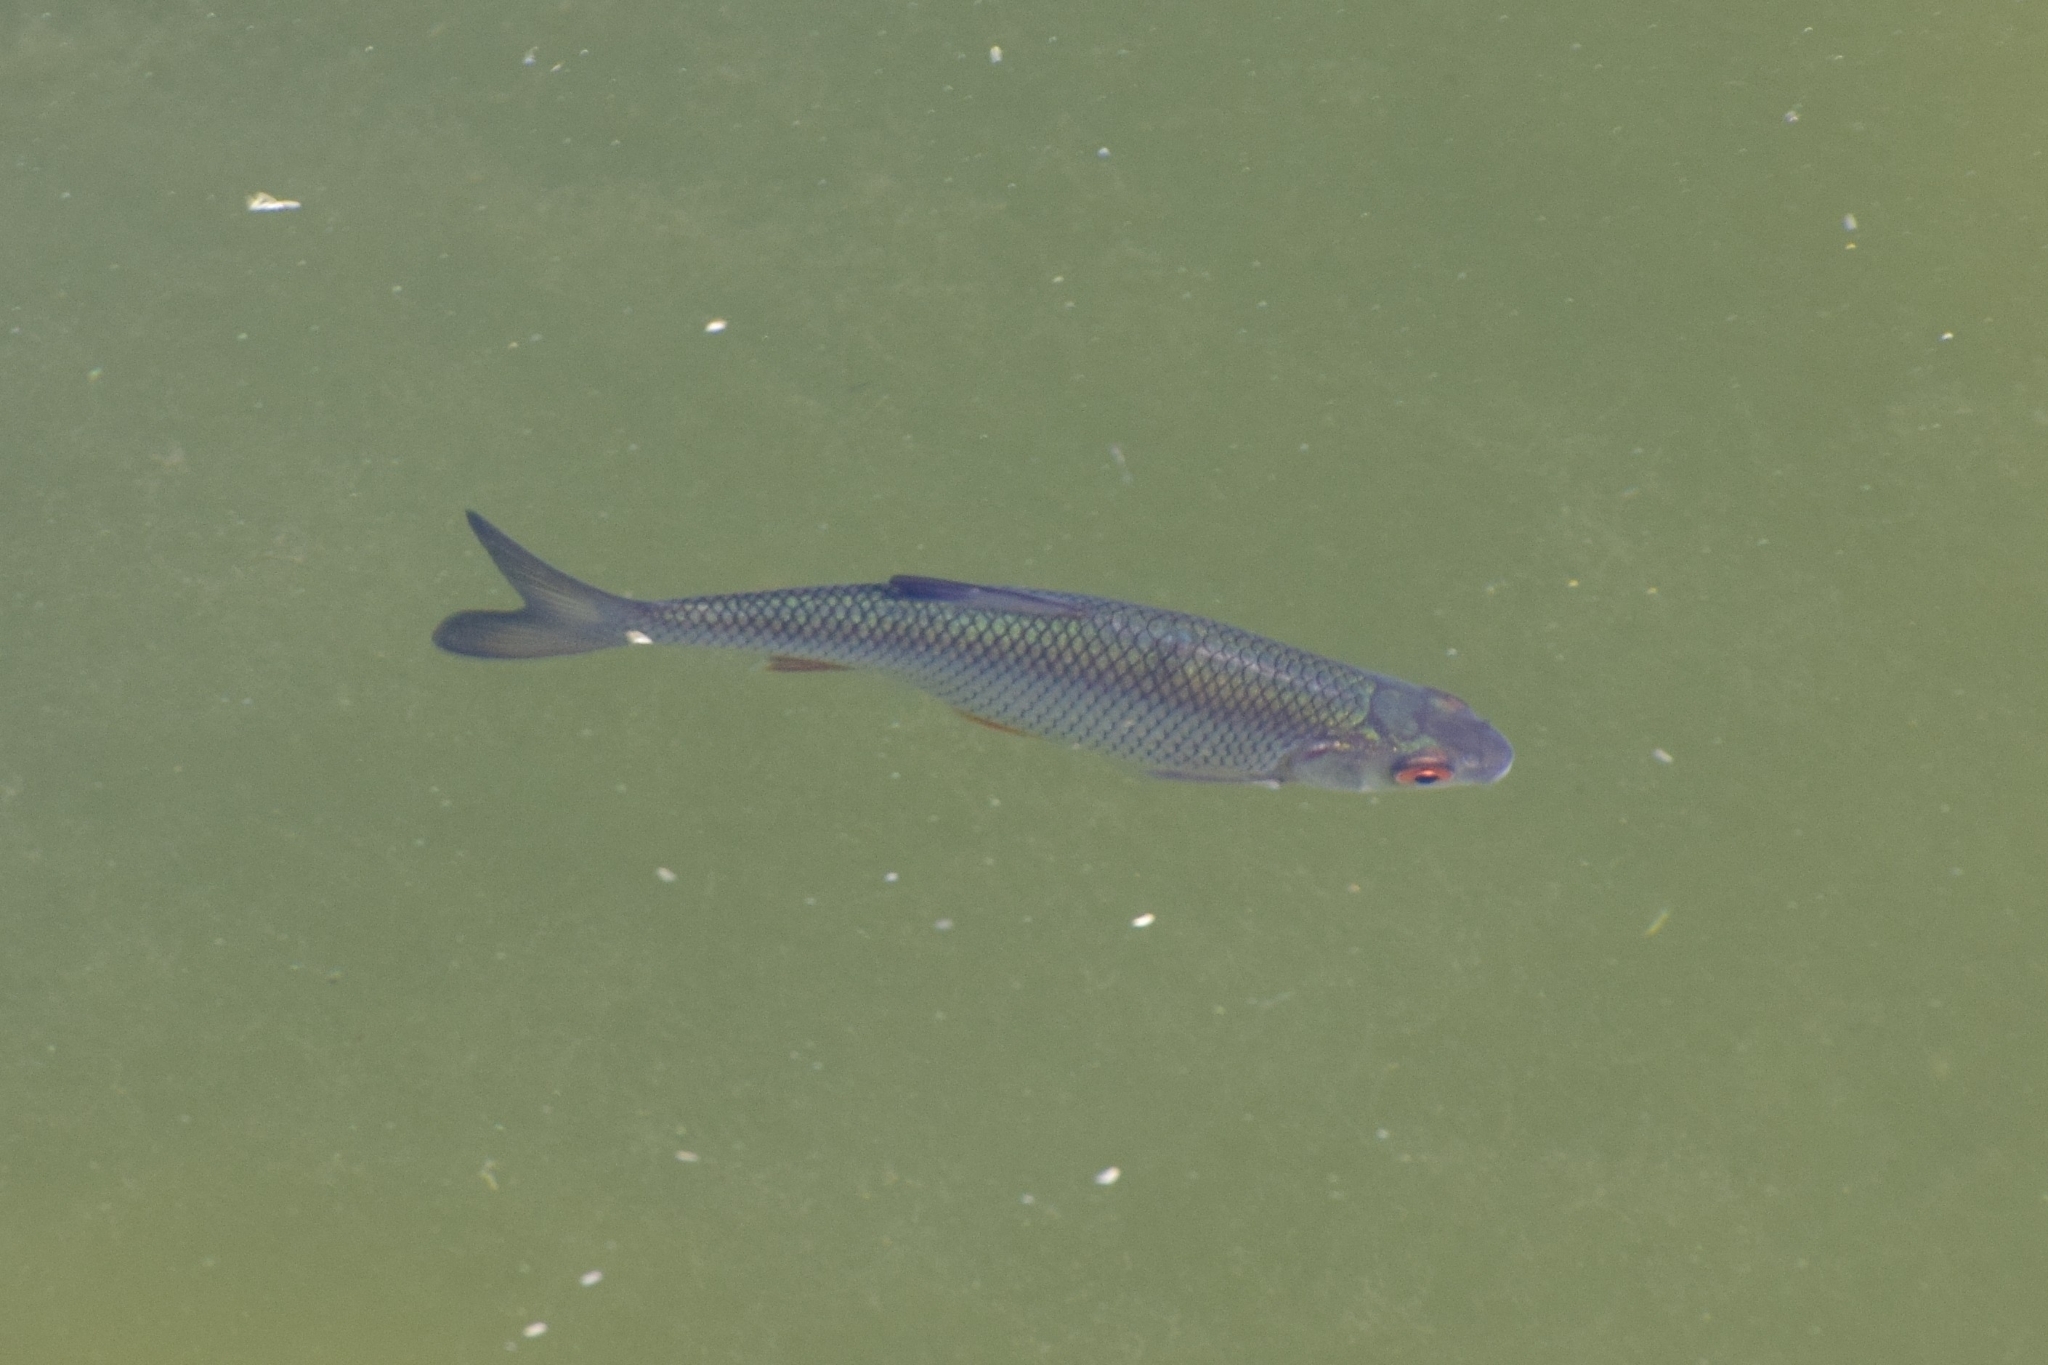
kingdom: Animalia
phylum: Chordata
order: Cypriniformes
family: Cyprinidae
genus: Rutilus
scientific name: Rutilus rutilus
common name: Roach
